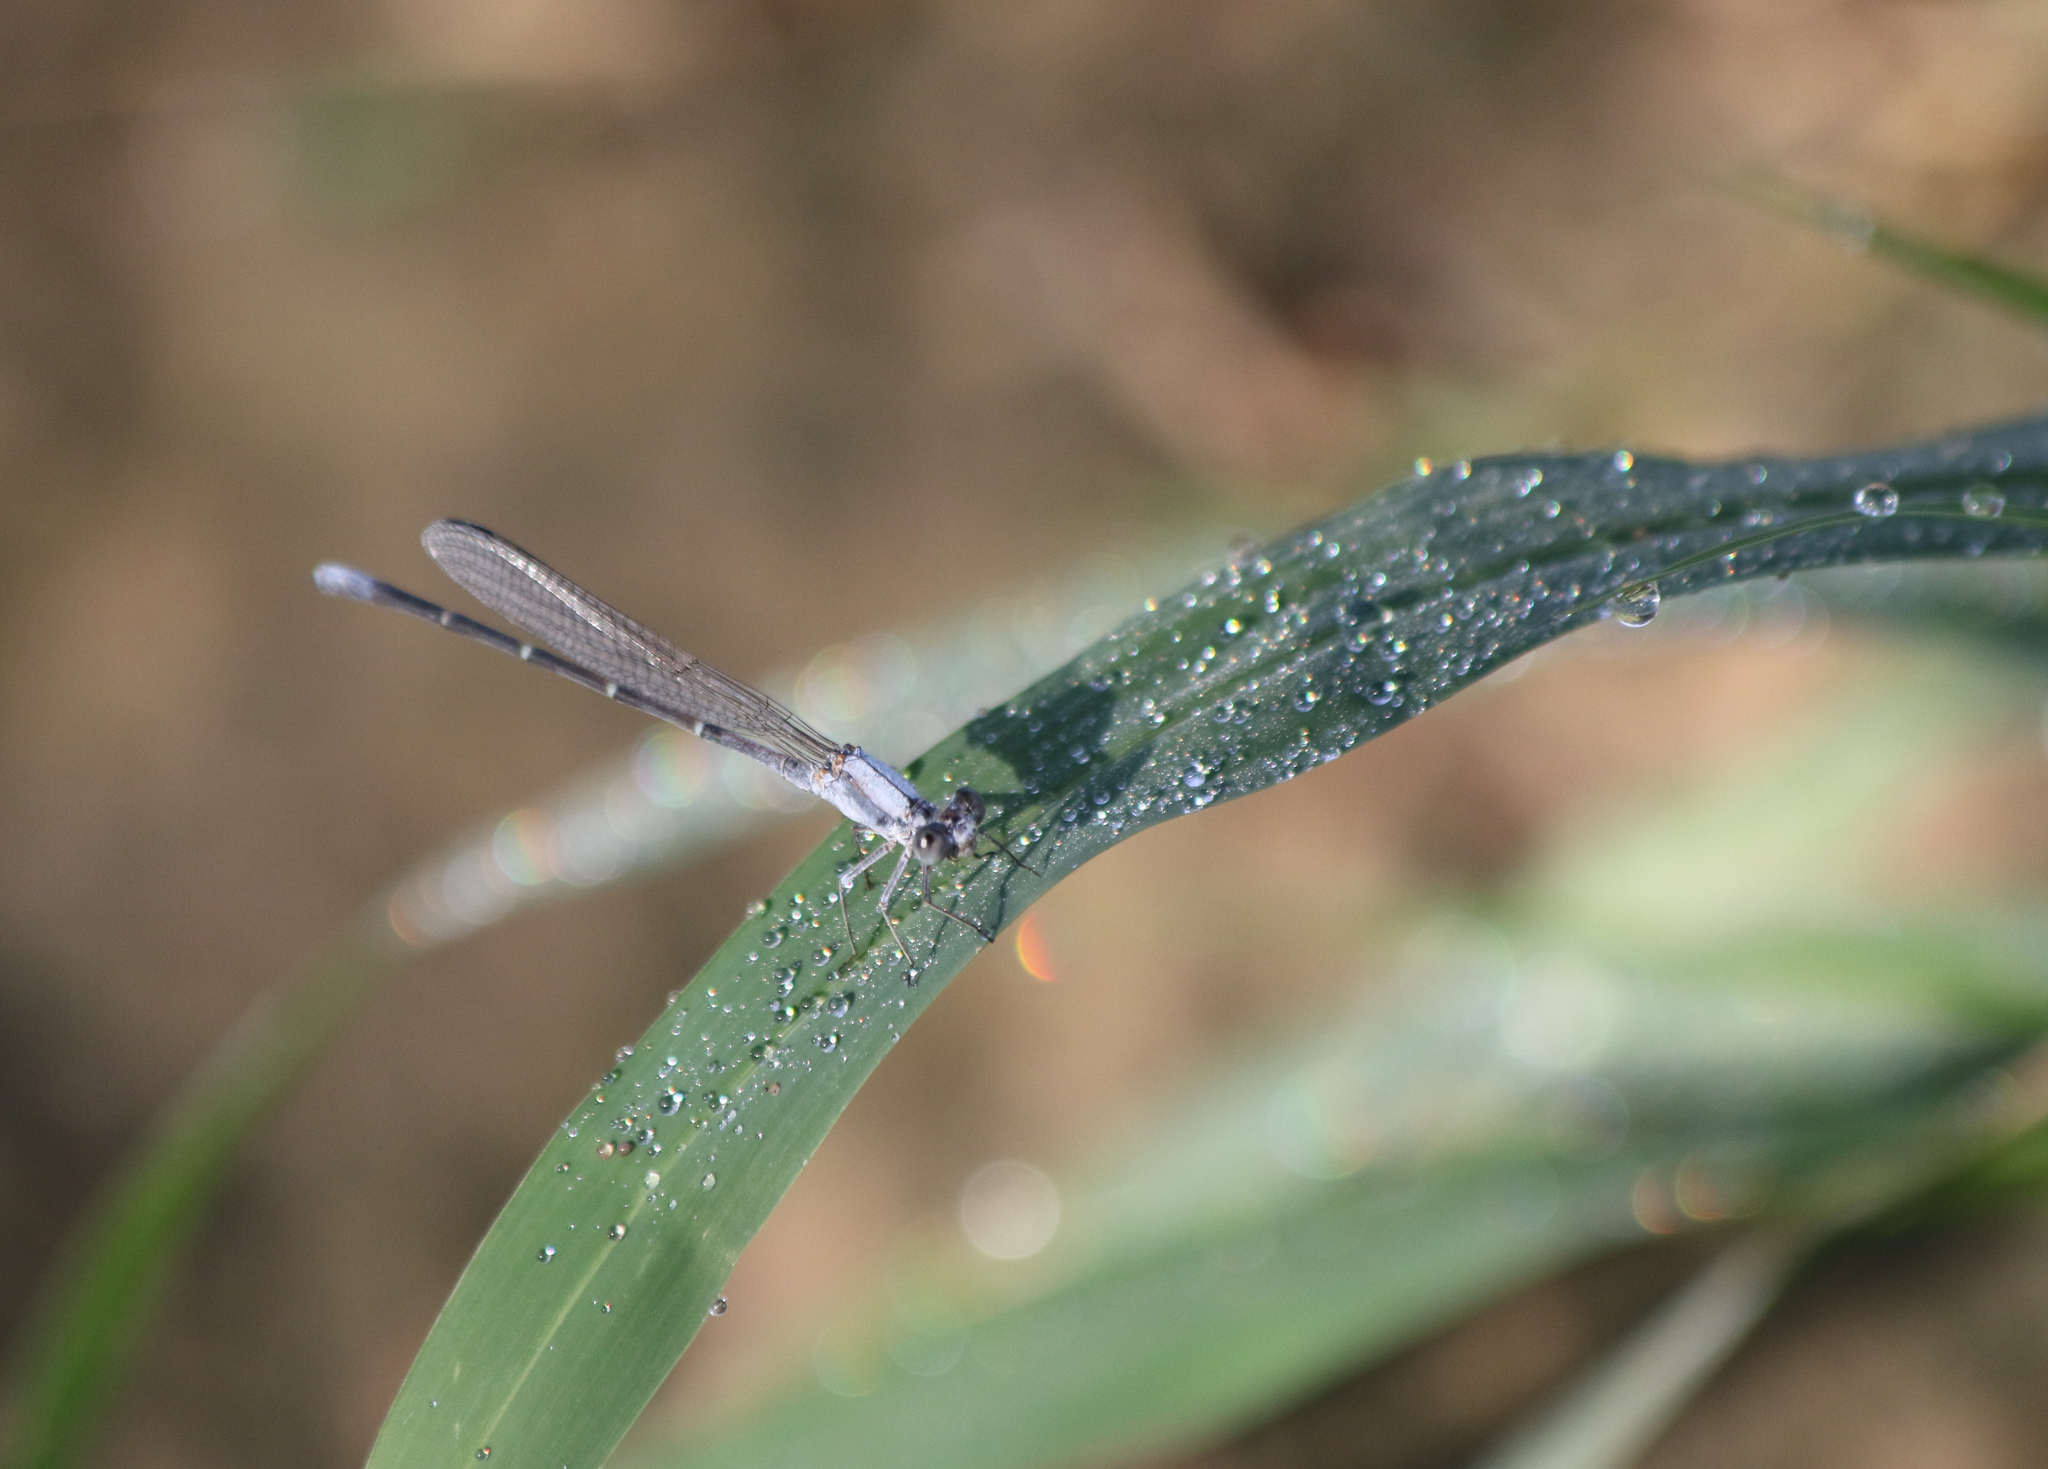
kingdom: Animalia
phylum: Arthropoda
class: Insecta
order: Odonata
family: Coenagrionidae
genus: Argia
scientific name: Argia moesta
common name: Powdered dancer
